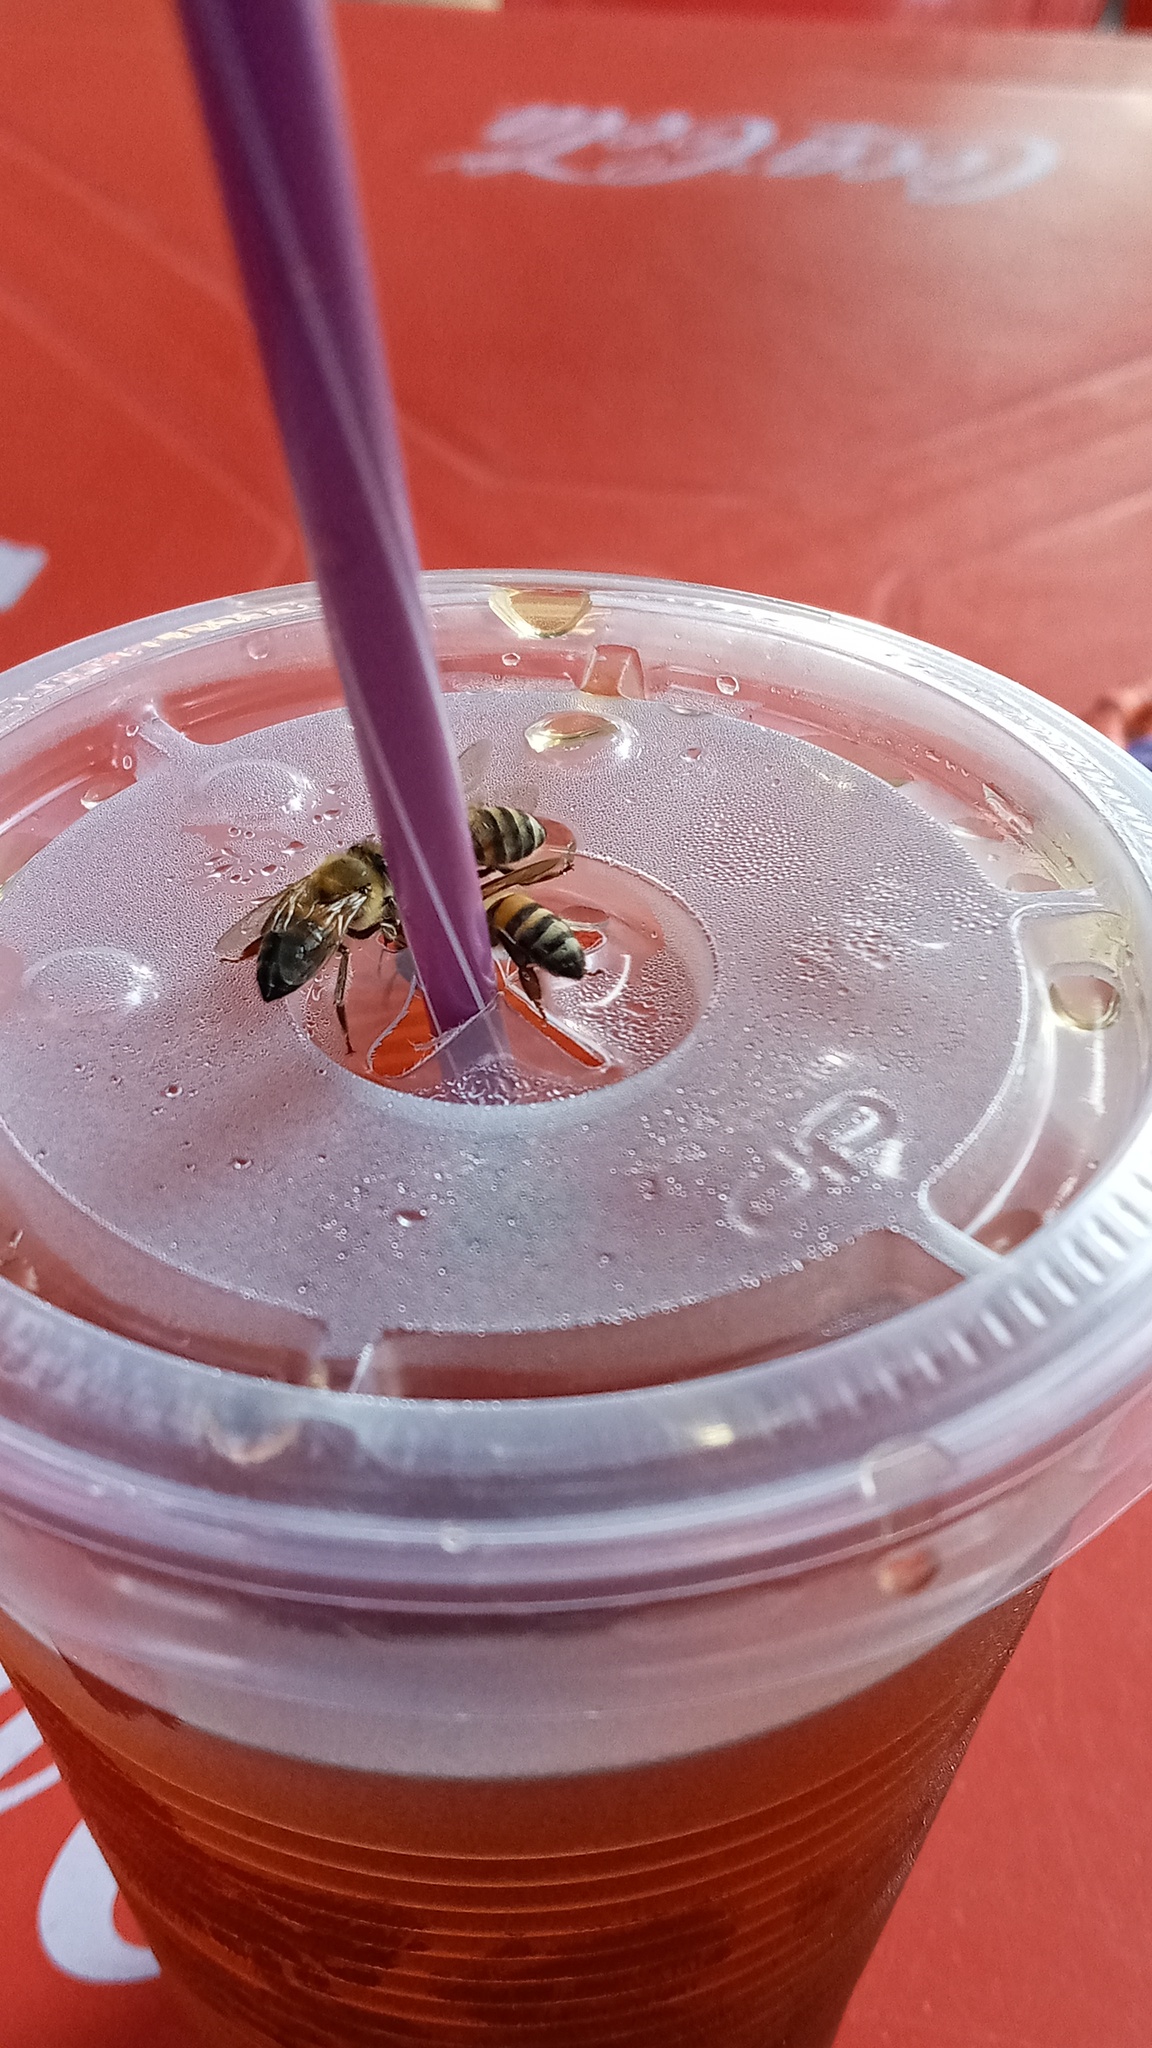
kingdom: Animalia
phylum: Arthropoda
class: Insecta
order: Hymenoptera
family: Apidae
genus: Apis
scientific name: Apis mellifera
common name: Honey bee
